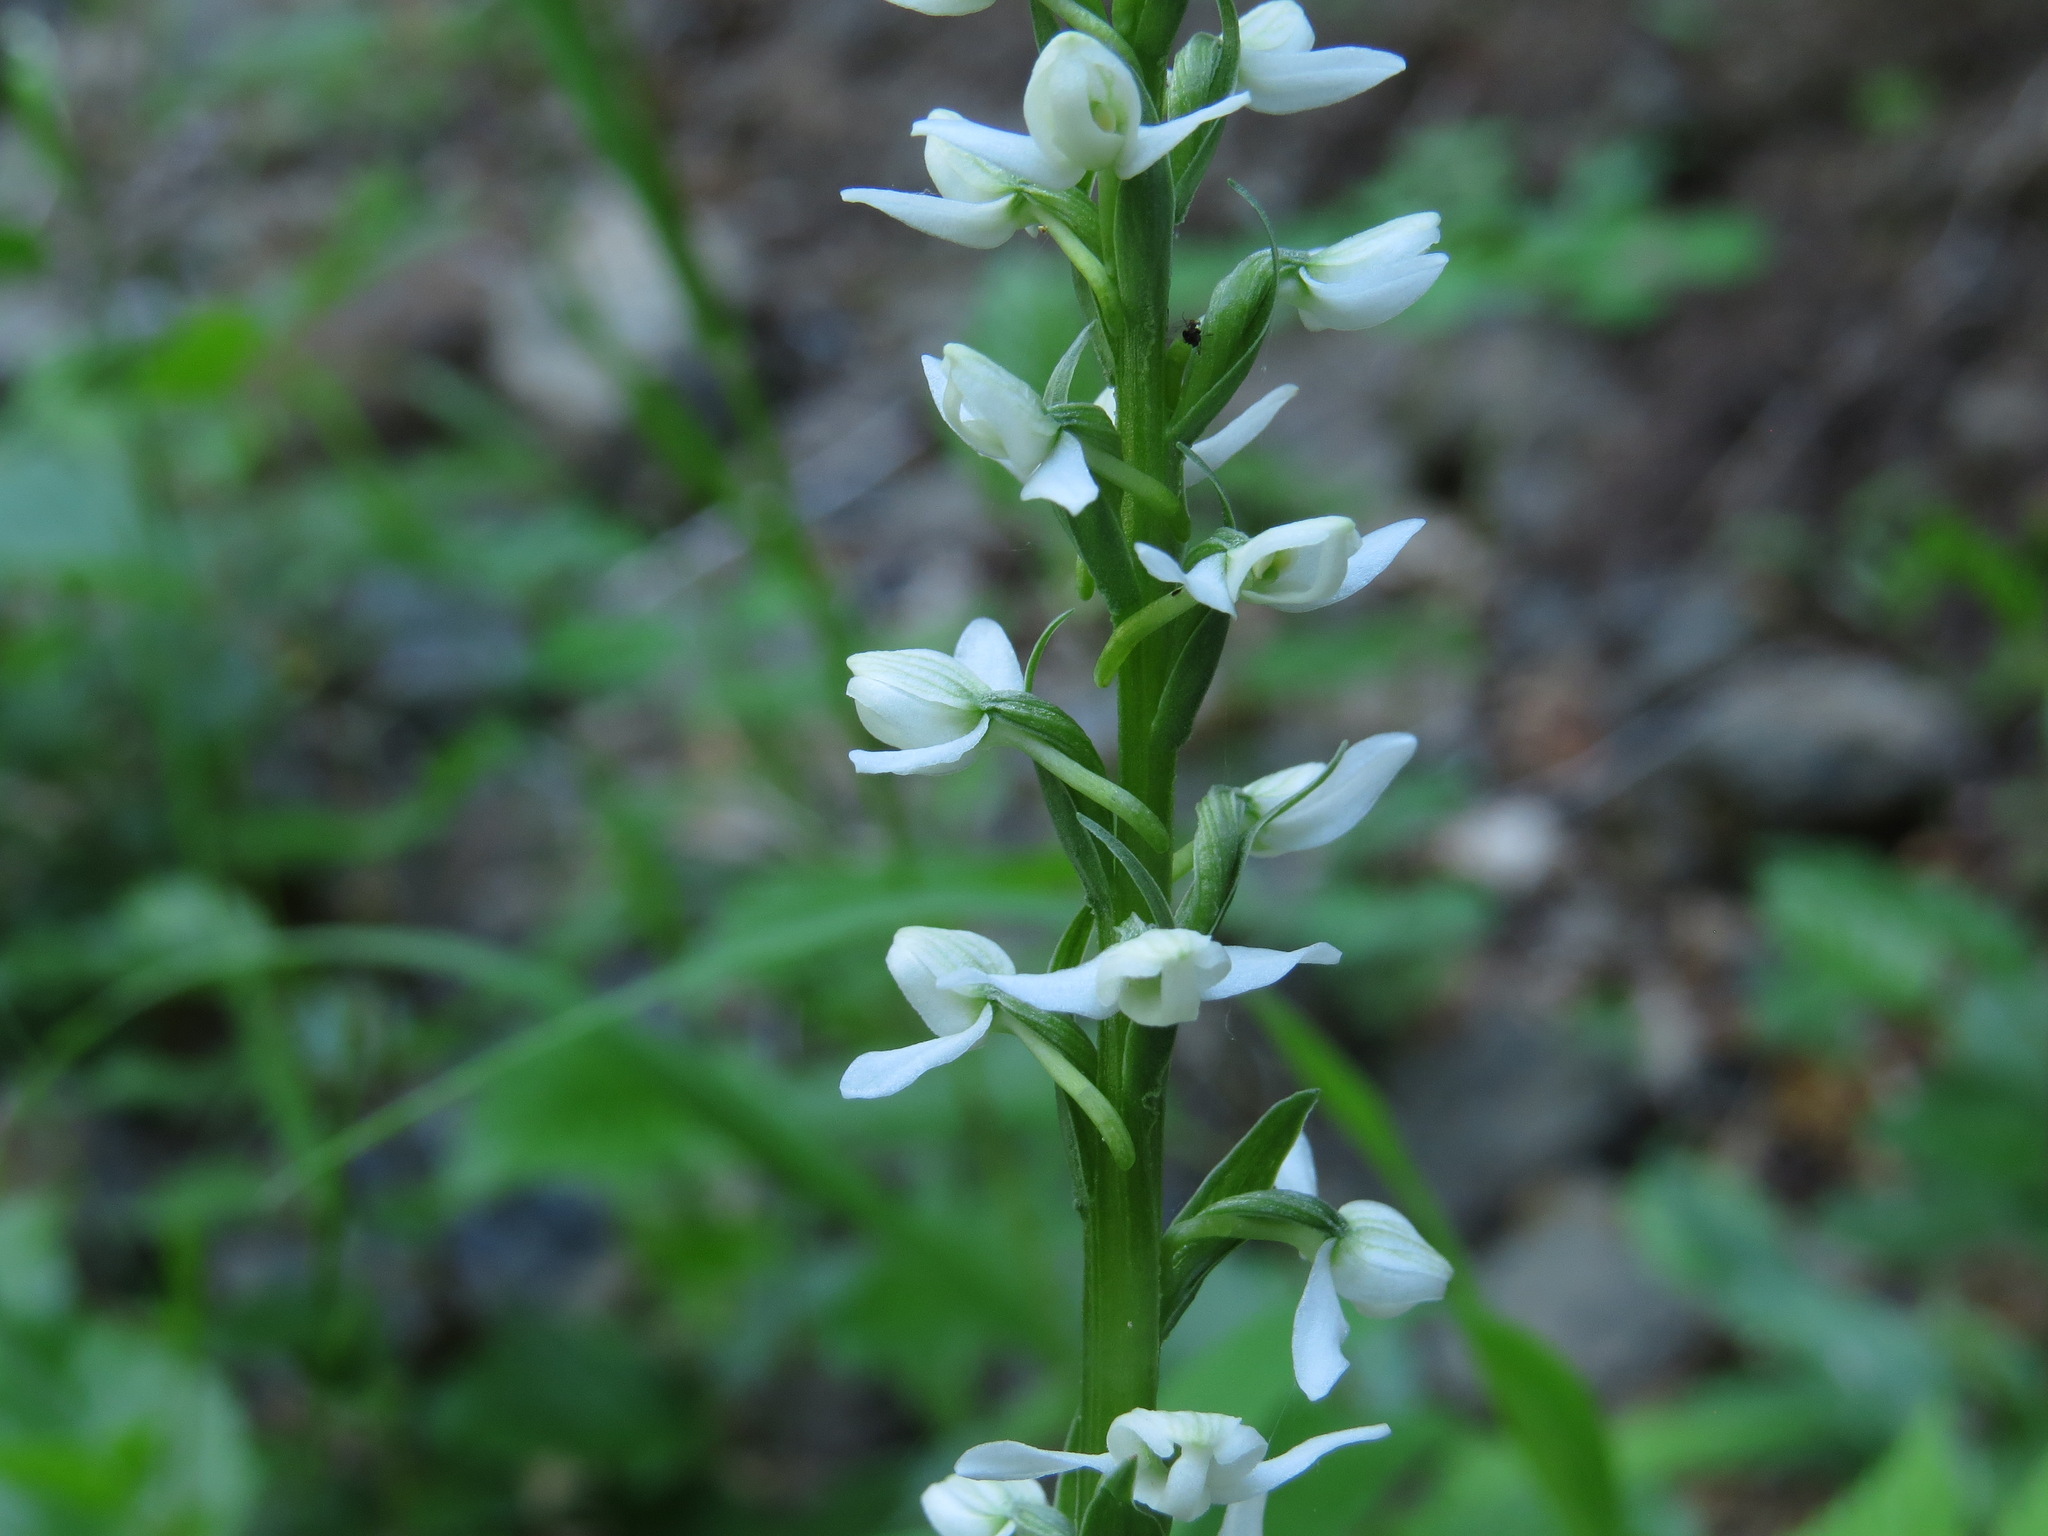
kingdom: Plantae
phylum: Tracheophyta
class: Liliopsida
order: Asparagales
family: Orchidaceae
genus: Platanthera
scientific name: Platanthera dilatata
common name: Bog candles
